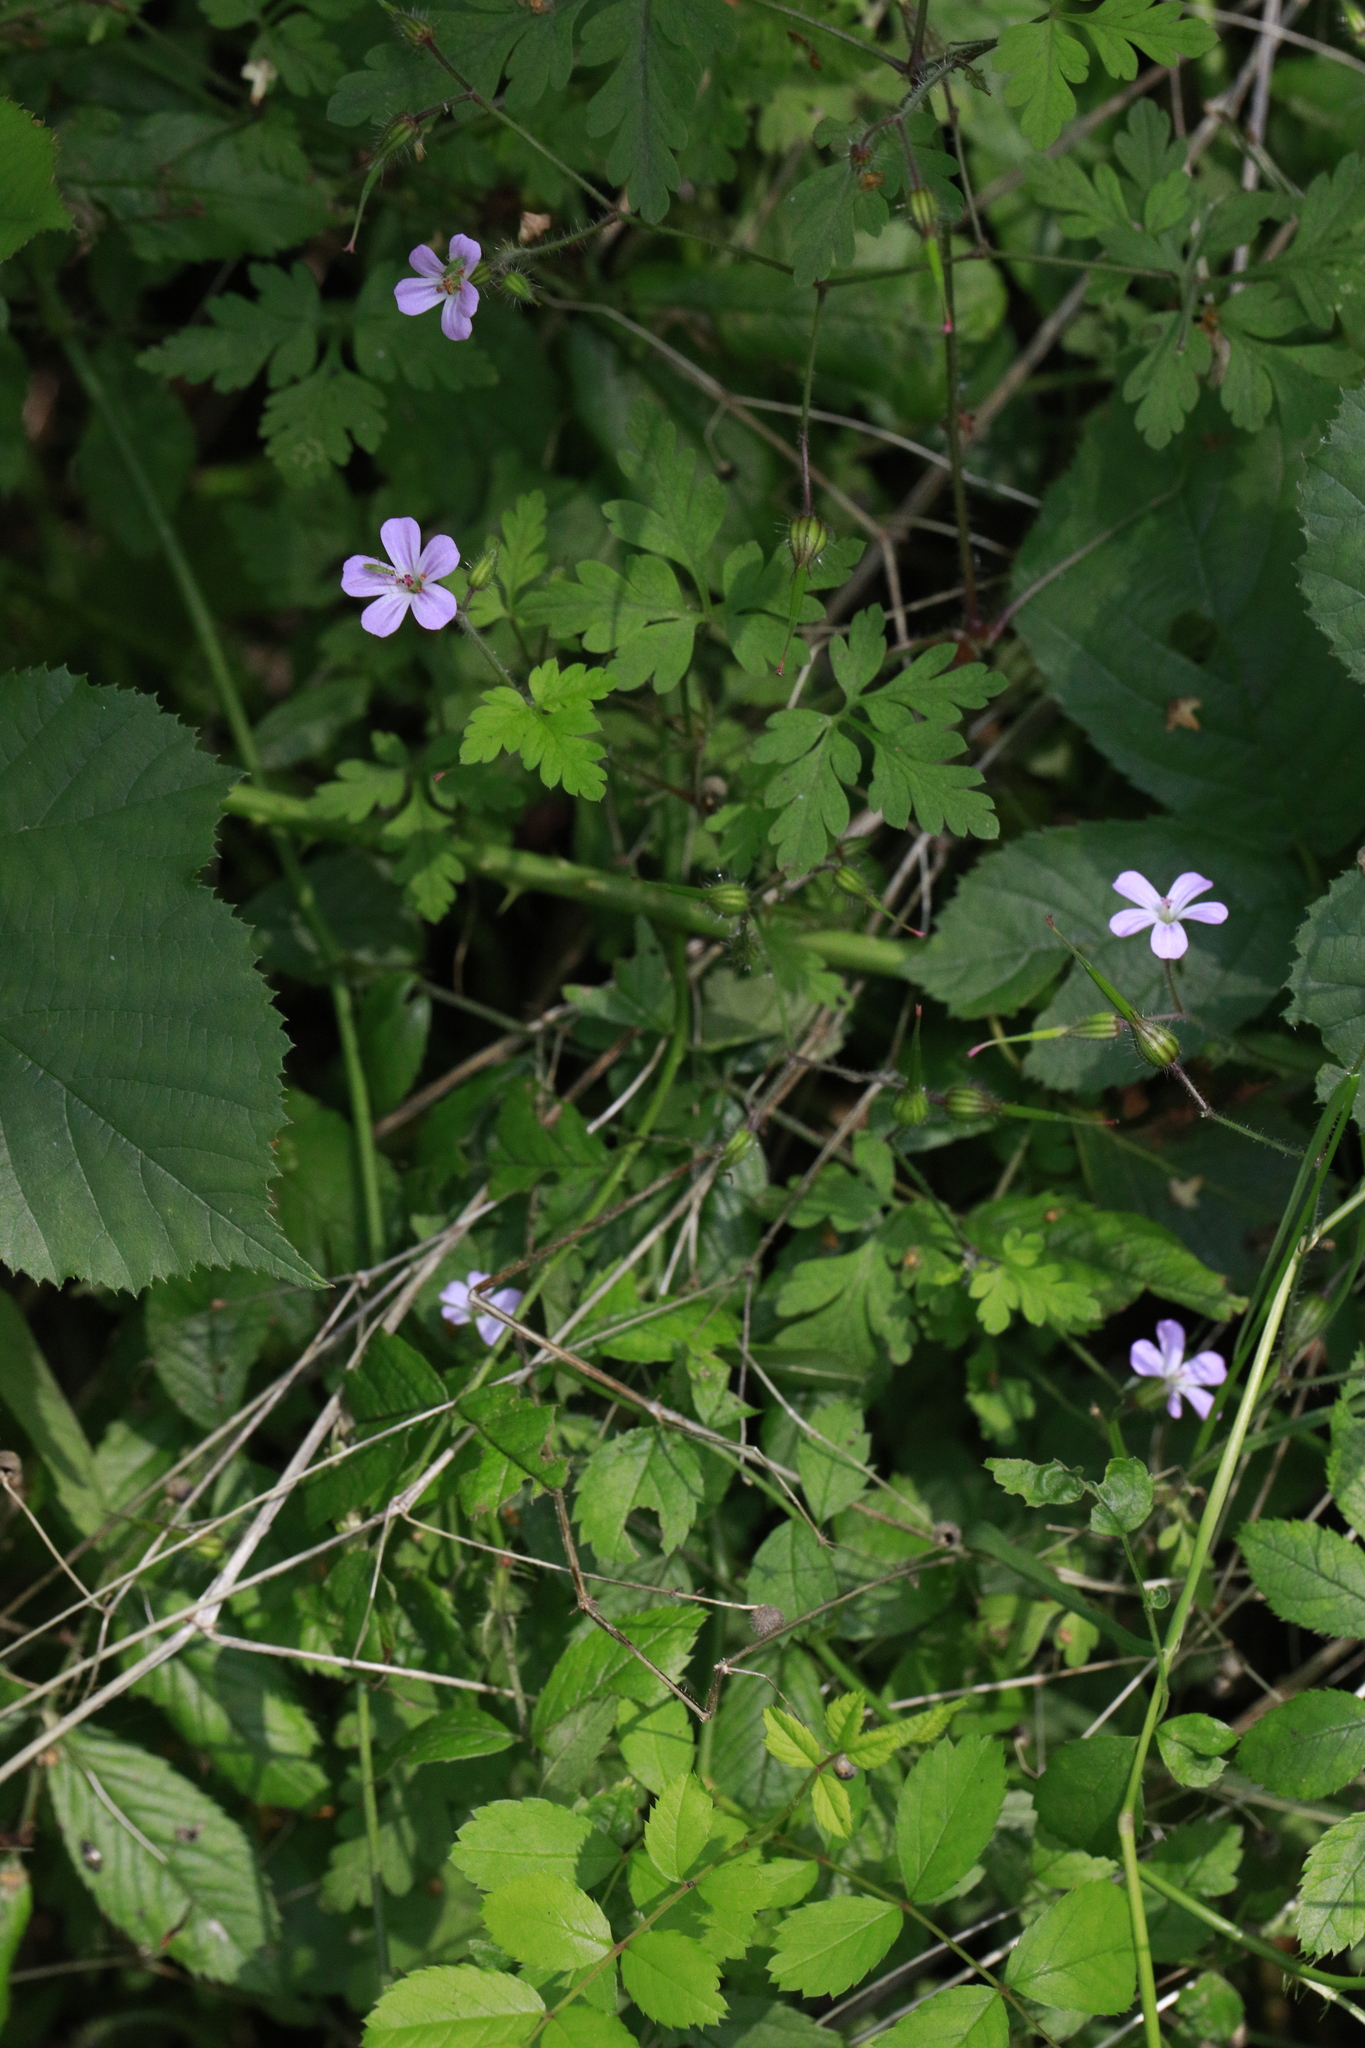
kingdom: Plantae
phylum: Tracheophyta
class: Magnoliopsida
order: Geraniales
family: Geraniaceae
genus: Geranium
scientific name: Geranium robertianum
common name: Herb-robert
